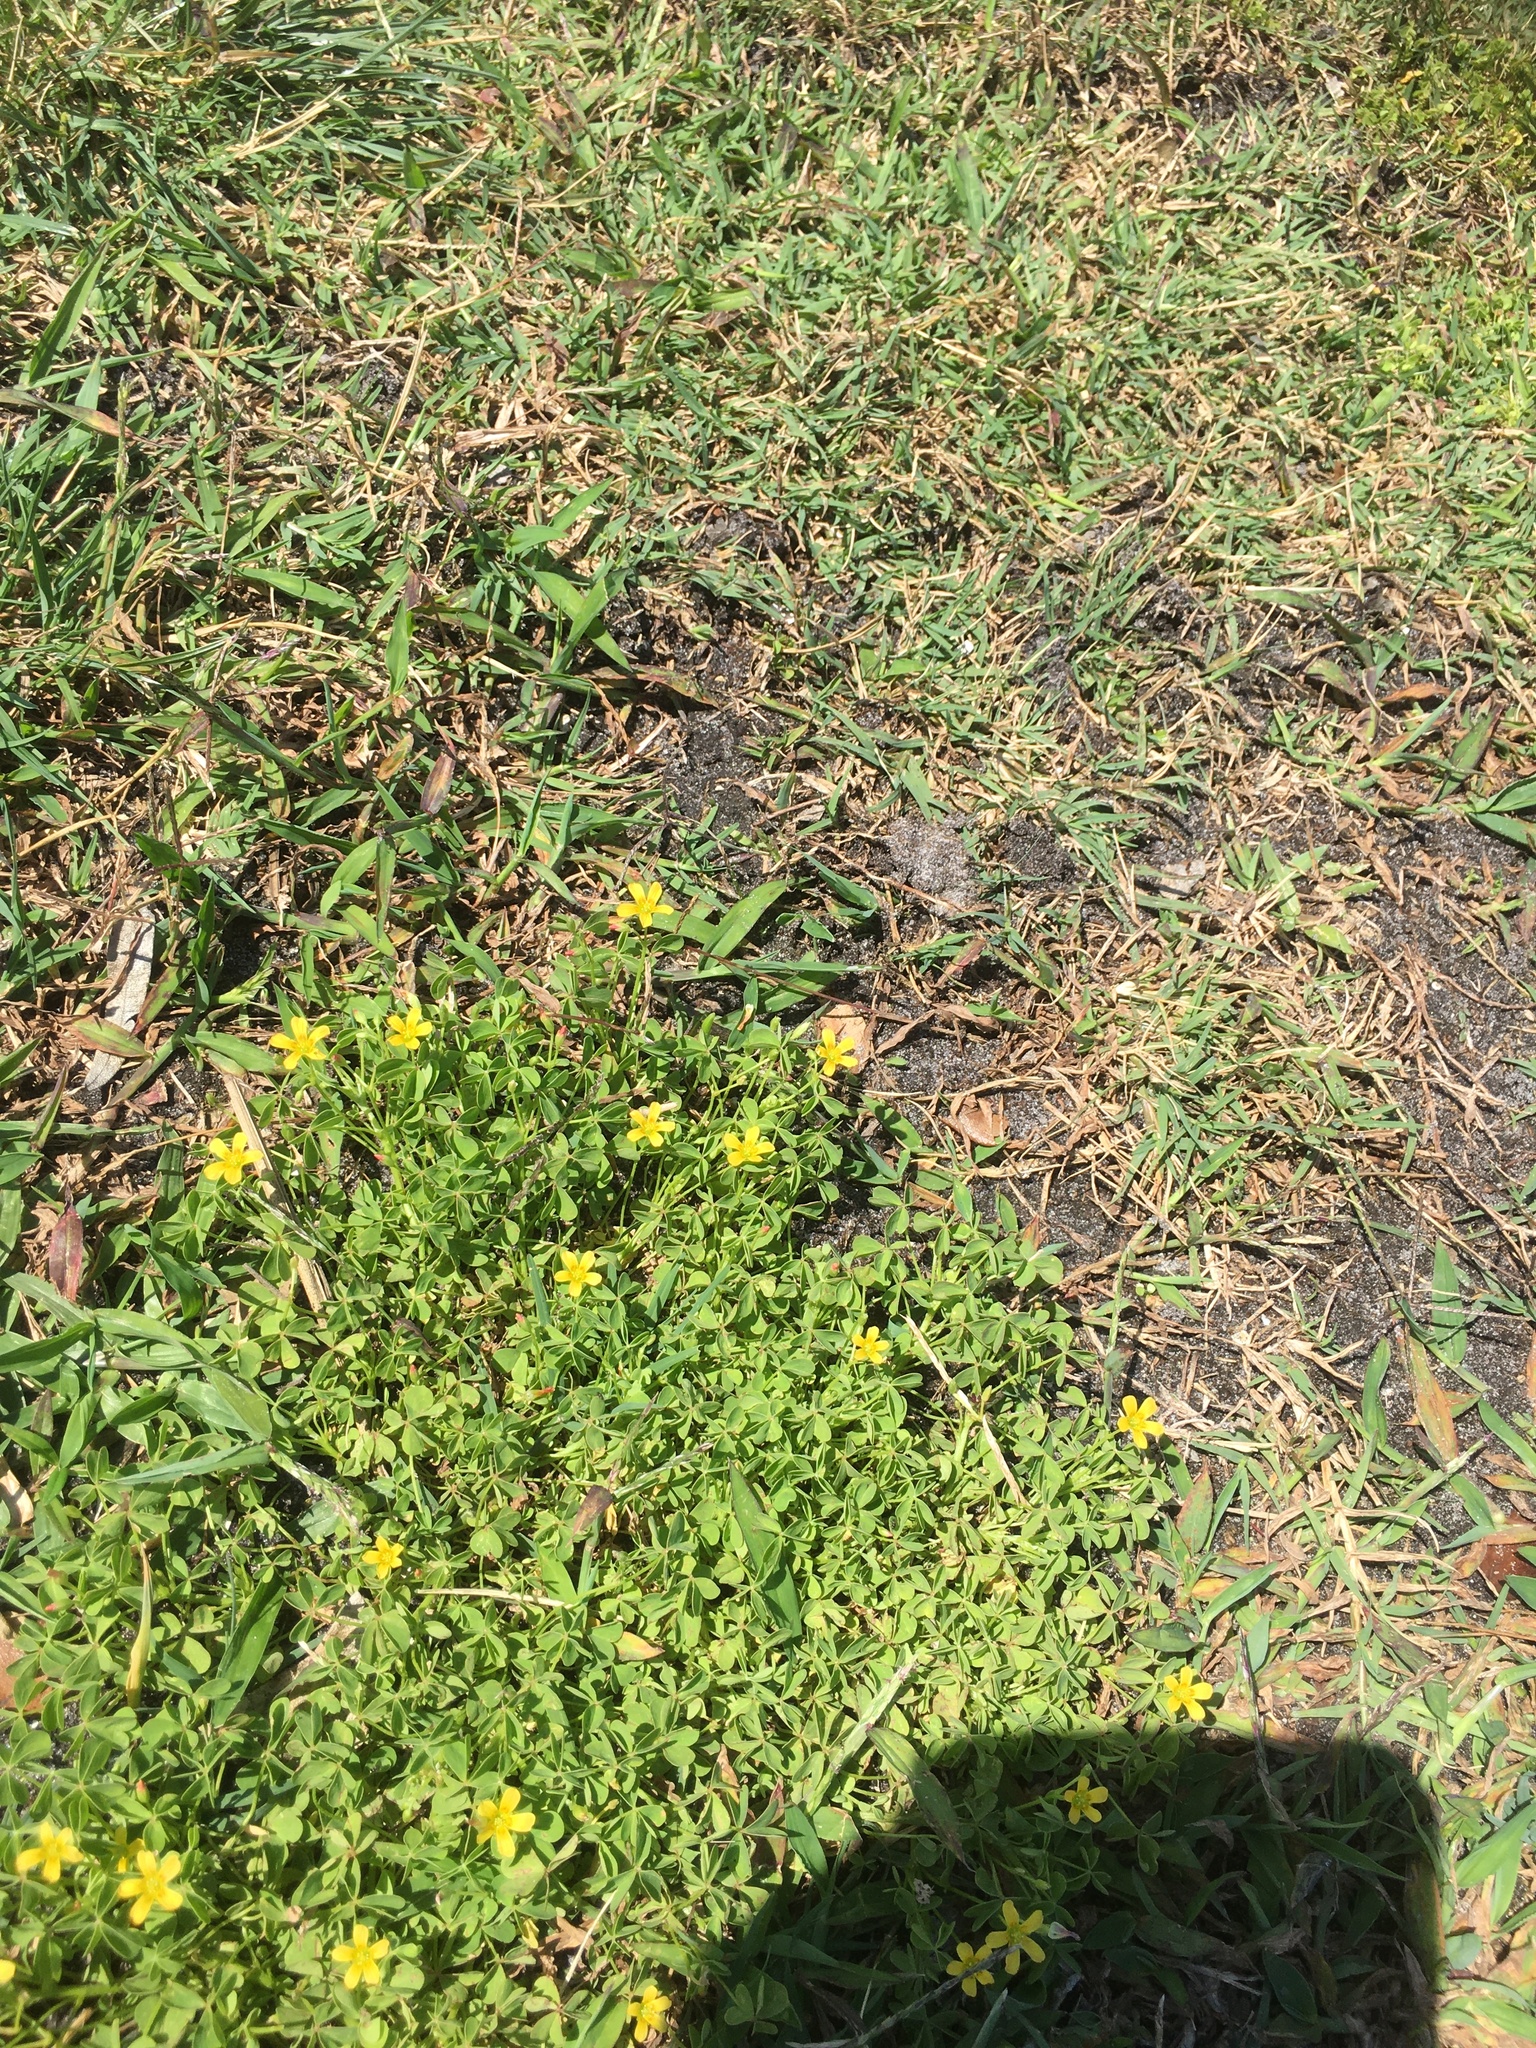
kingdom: Plantae
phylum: Tracheophyta
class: Magnoliopsida
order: Oxalidales
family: Oxalidaceae
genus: Oxalis
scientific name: Oxalis corniculata
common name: Procumbent yellow-sorrel
